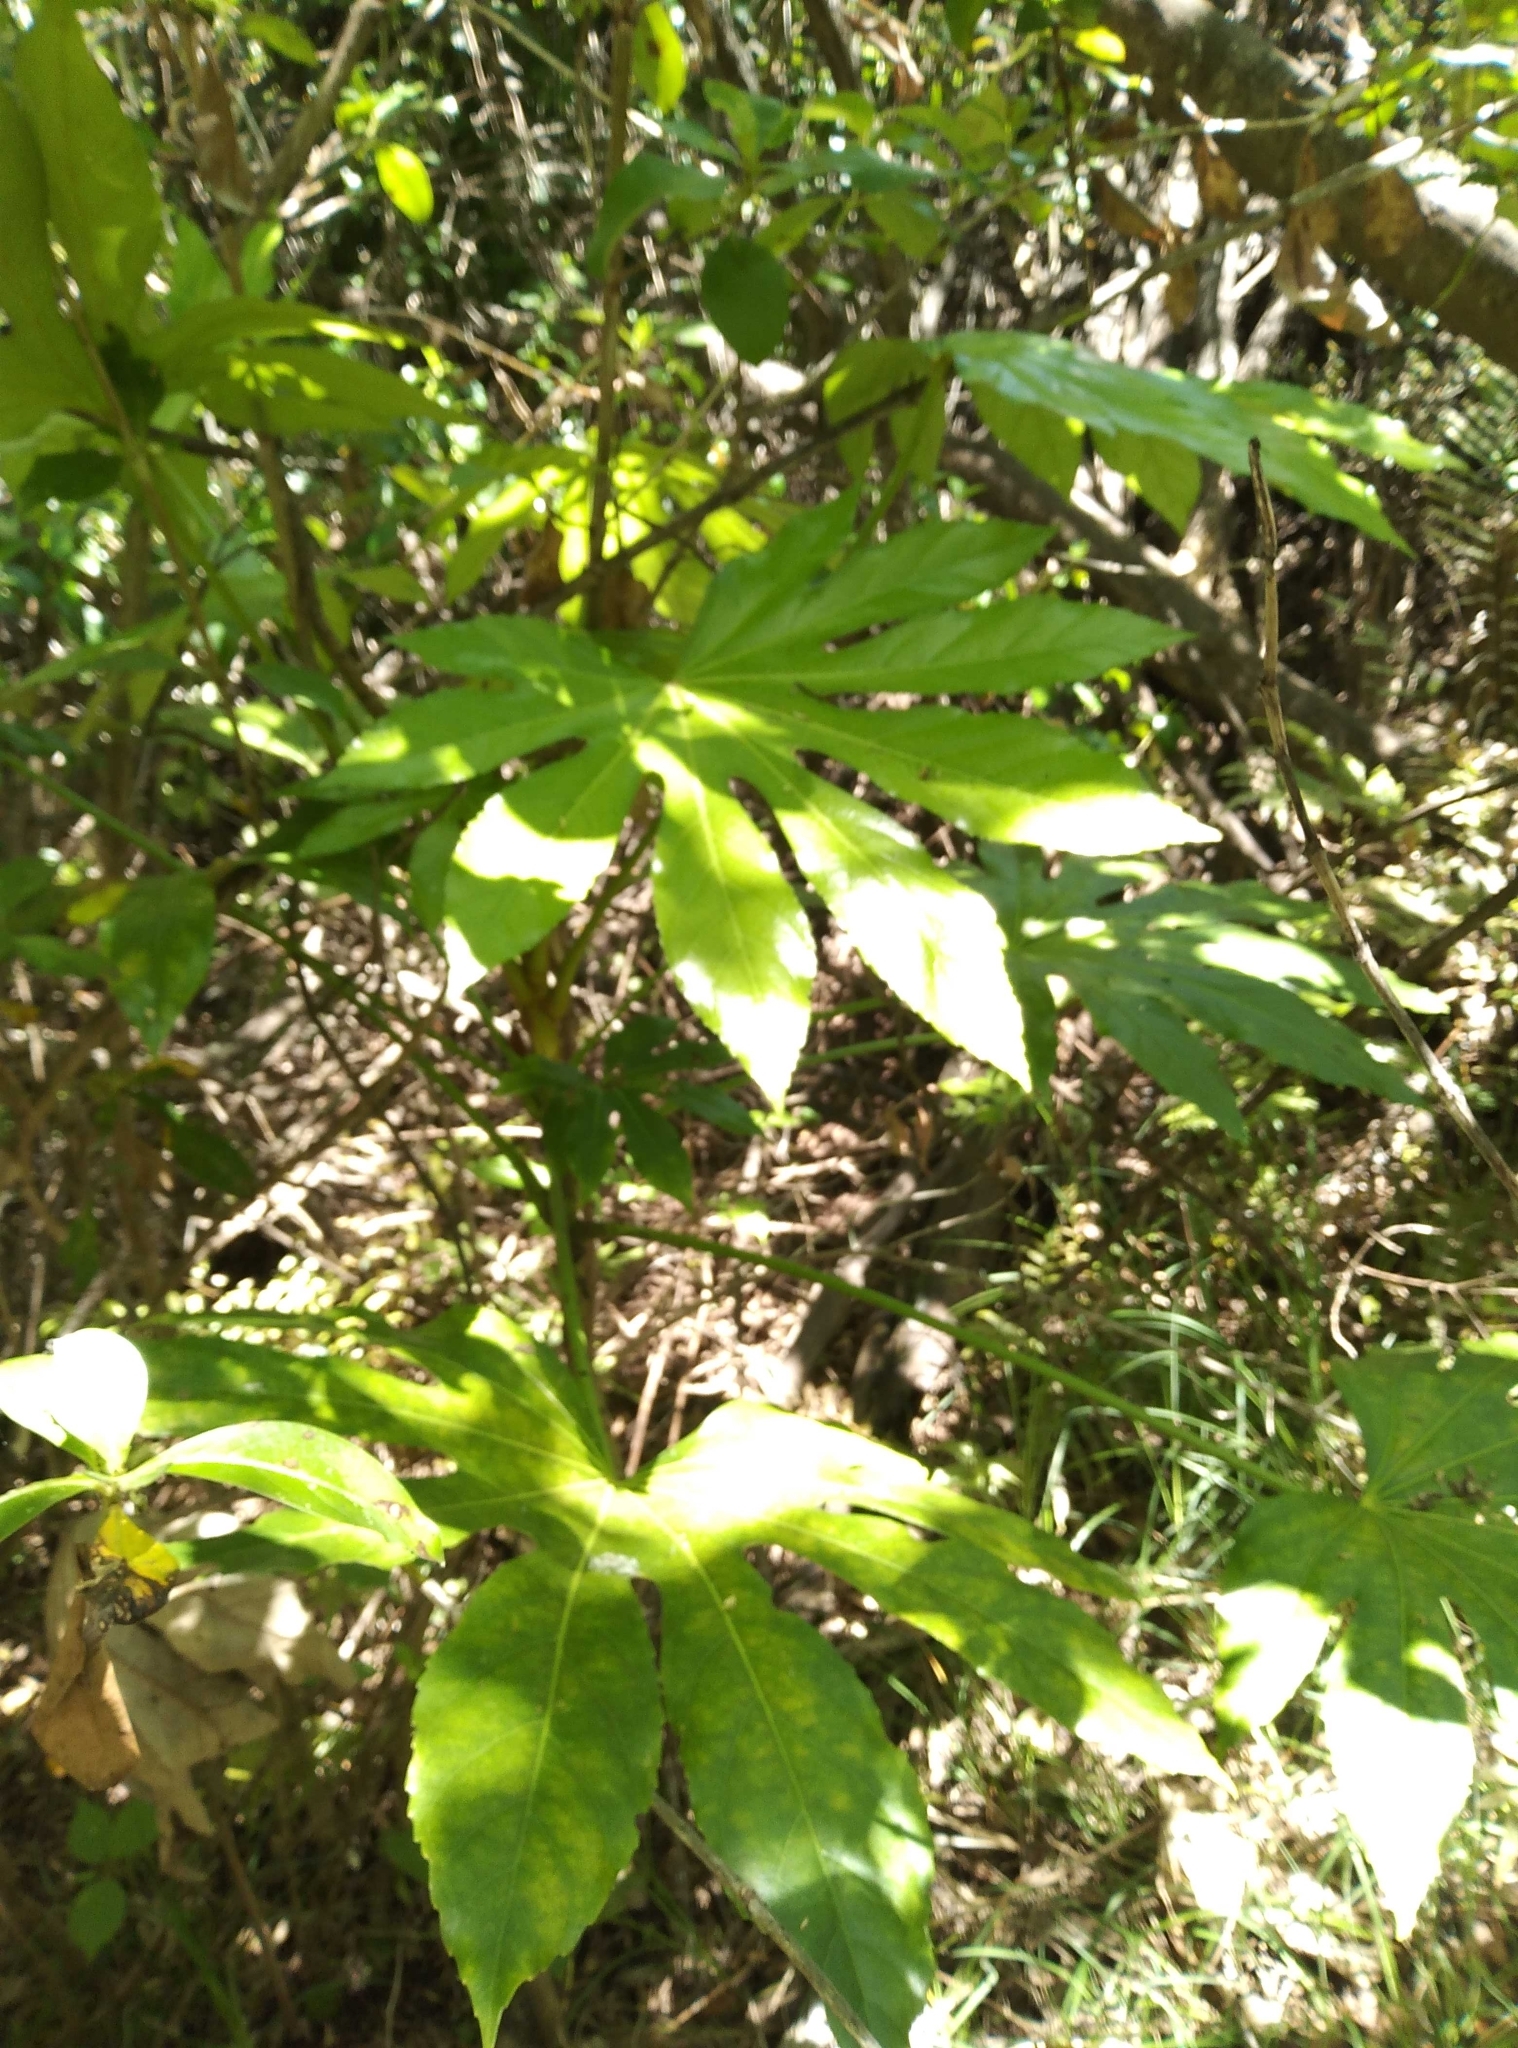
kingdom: Plantae
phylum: Tracheophyta
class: Magnoliopsida
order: Apiales
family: Araliaceae
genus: Fatsia
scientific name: Fatsia japonica
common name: Fatsia
